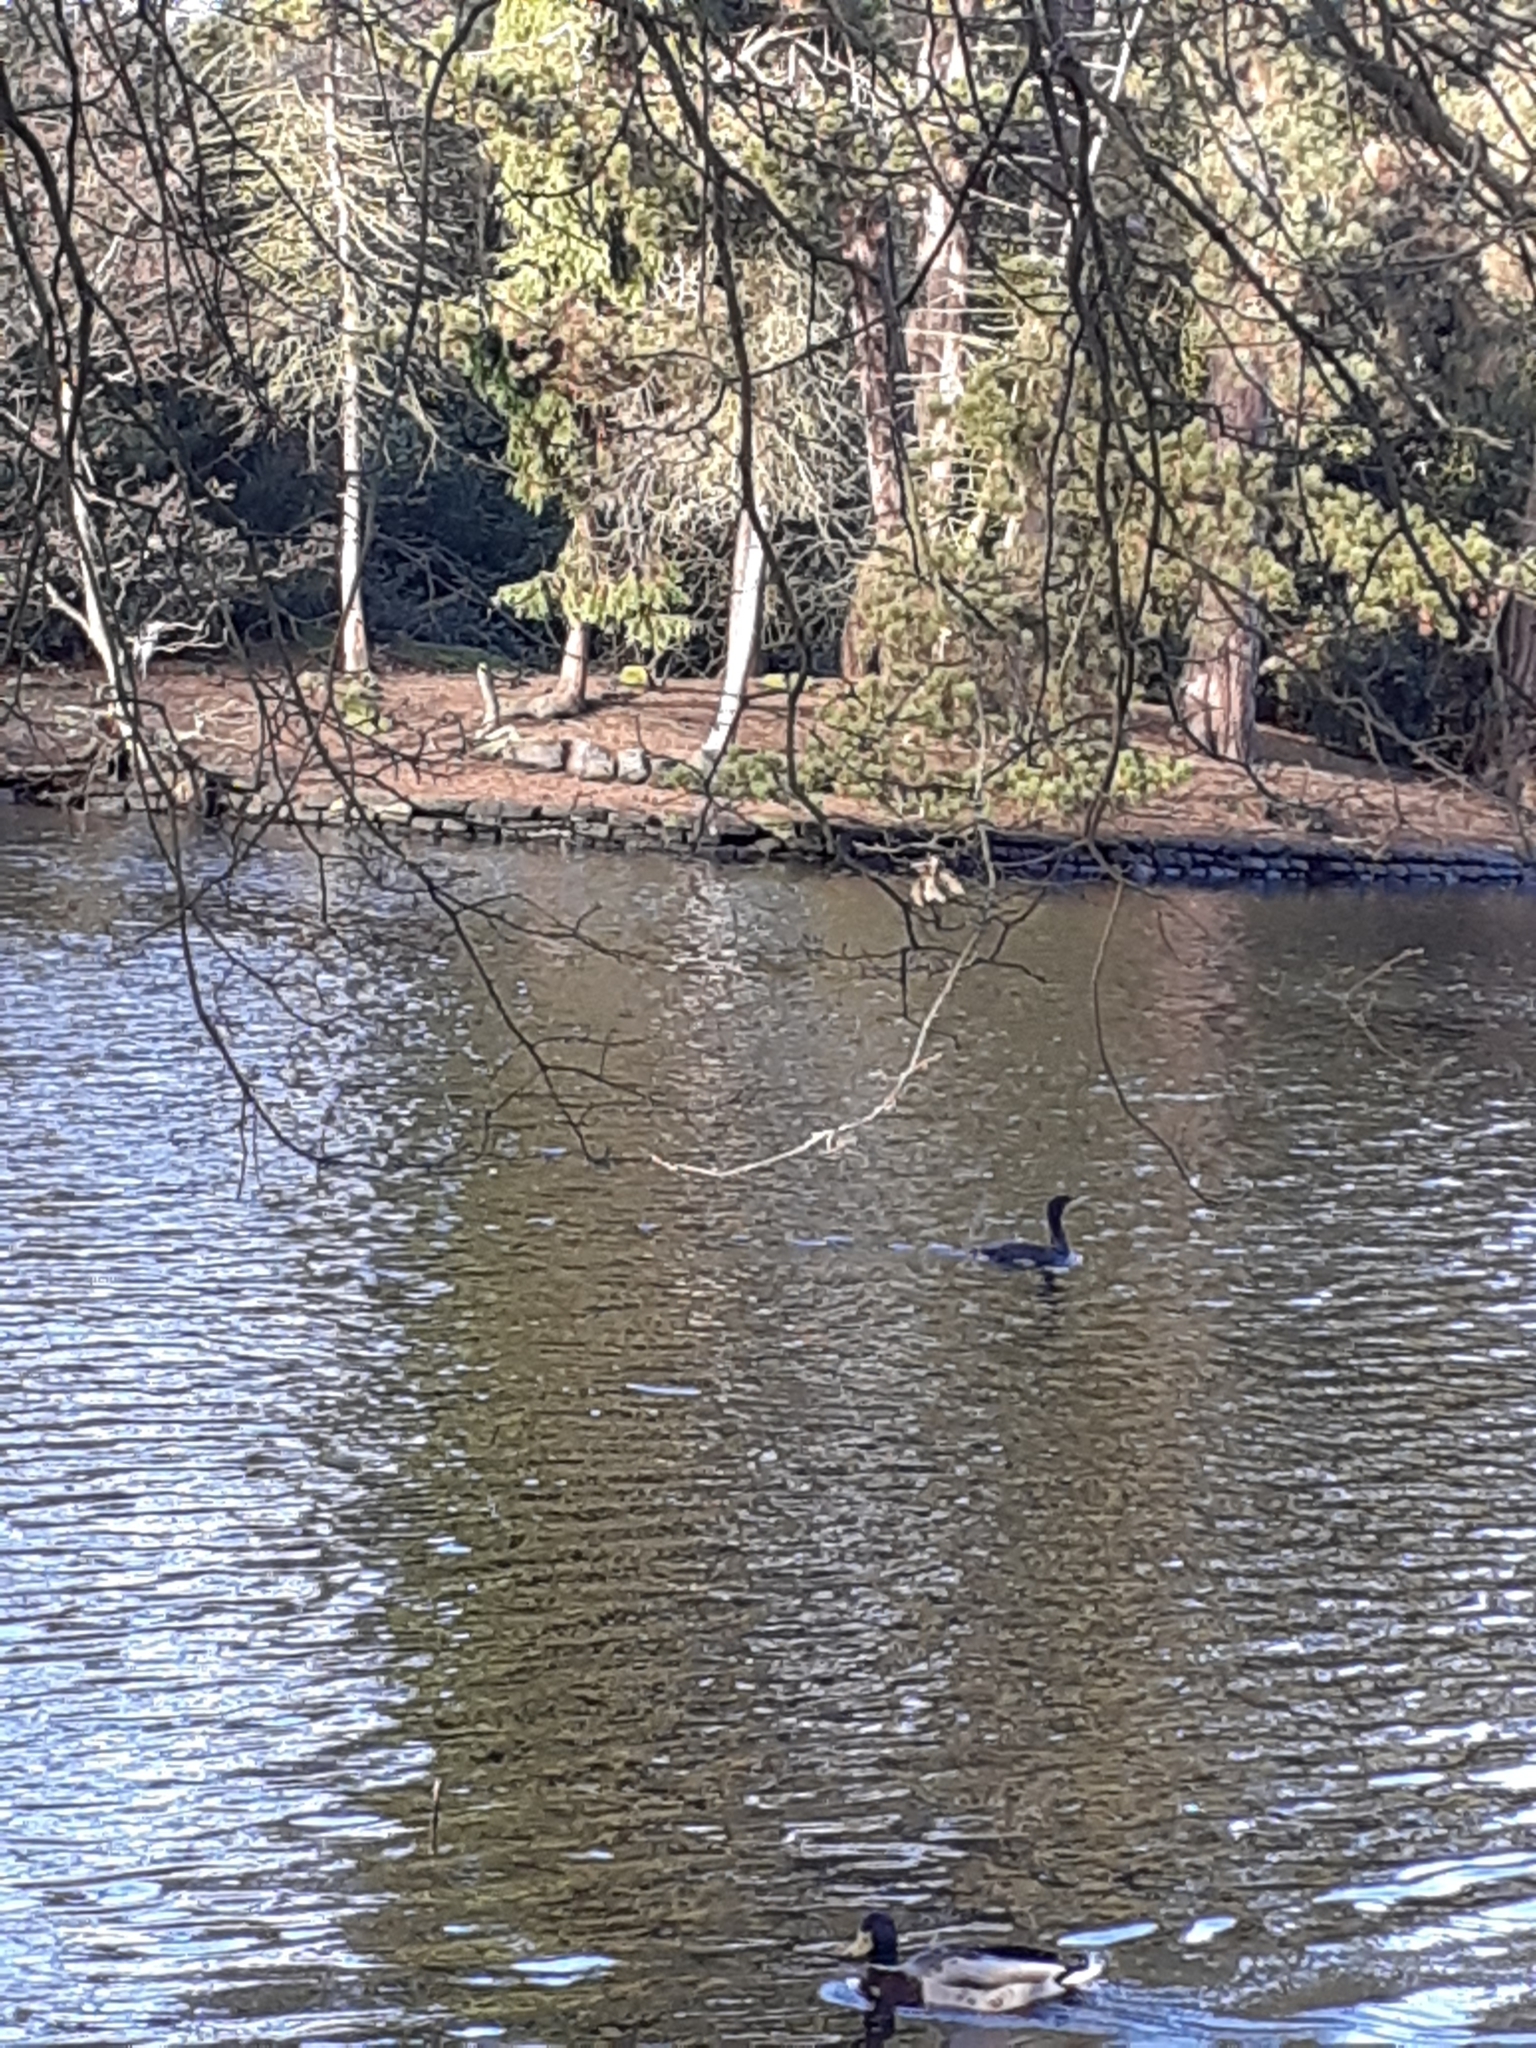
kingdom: Animalia
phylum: Chordata
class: Aves
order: Suliformes
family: Phalacrocoracidae
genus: Phalacrocorax
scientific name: Phalacrocorax carbo
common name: Great cormorant
